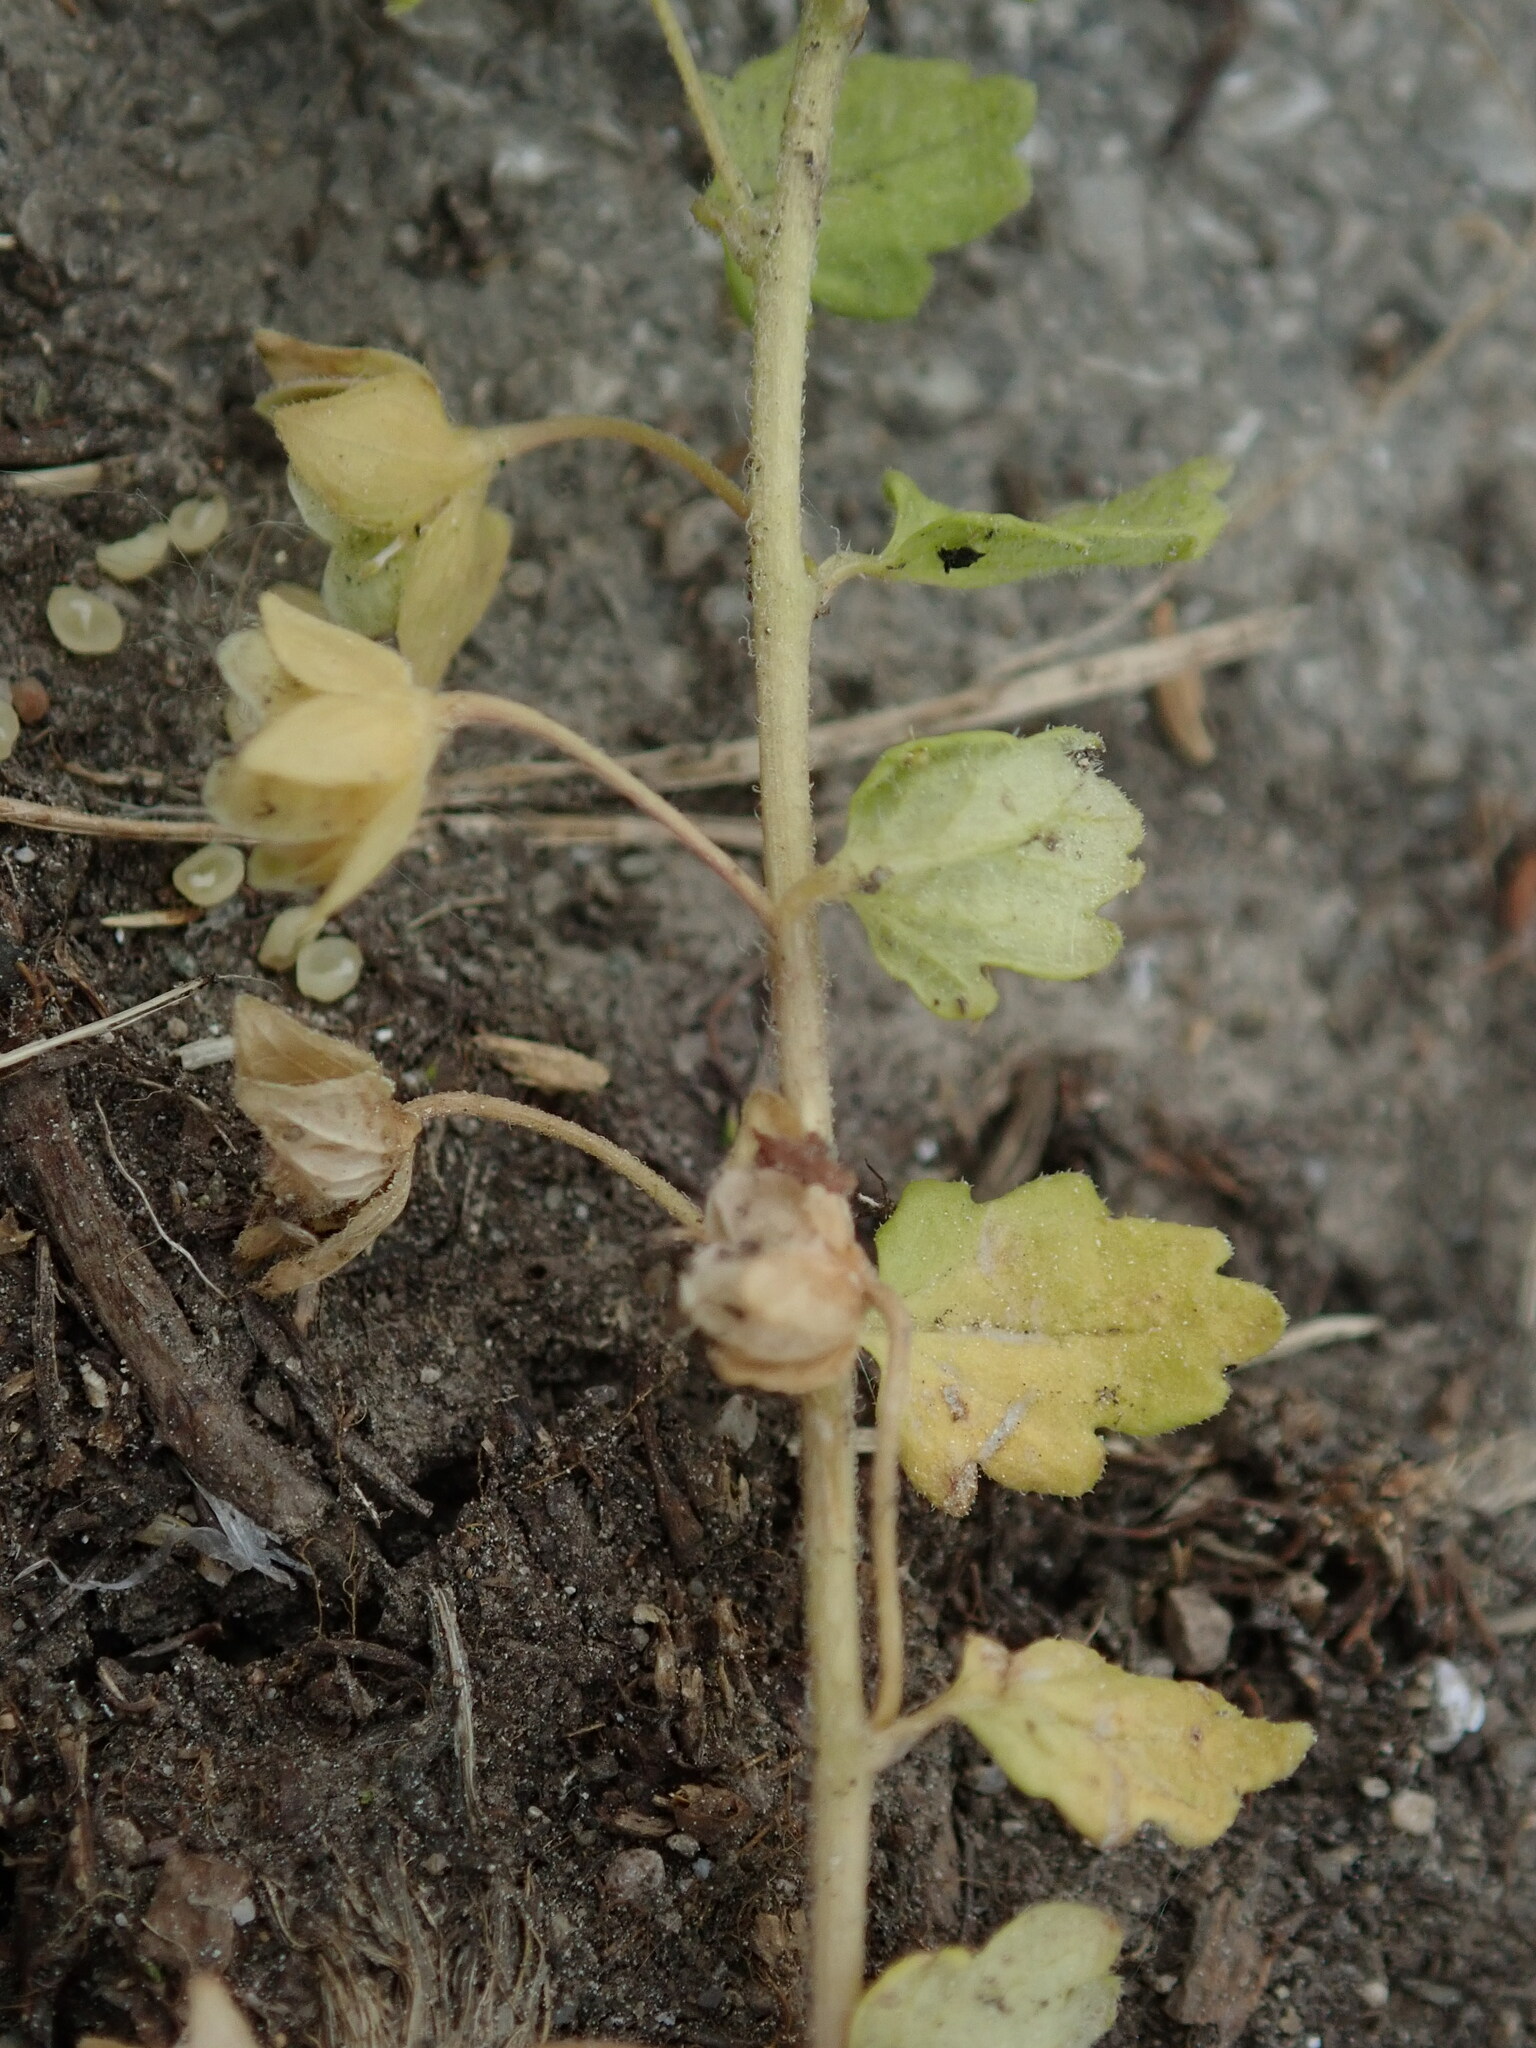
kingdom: Plantae
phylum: Tracheophyta
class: Magnoliopsida
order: Lamiales
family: Plantaginaceae
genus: Veronica
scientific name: Veronica polita
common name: Grey field-speedwell
